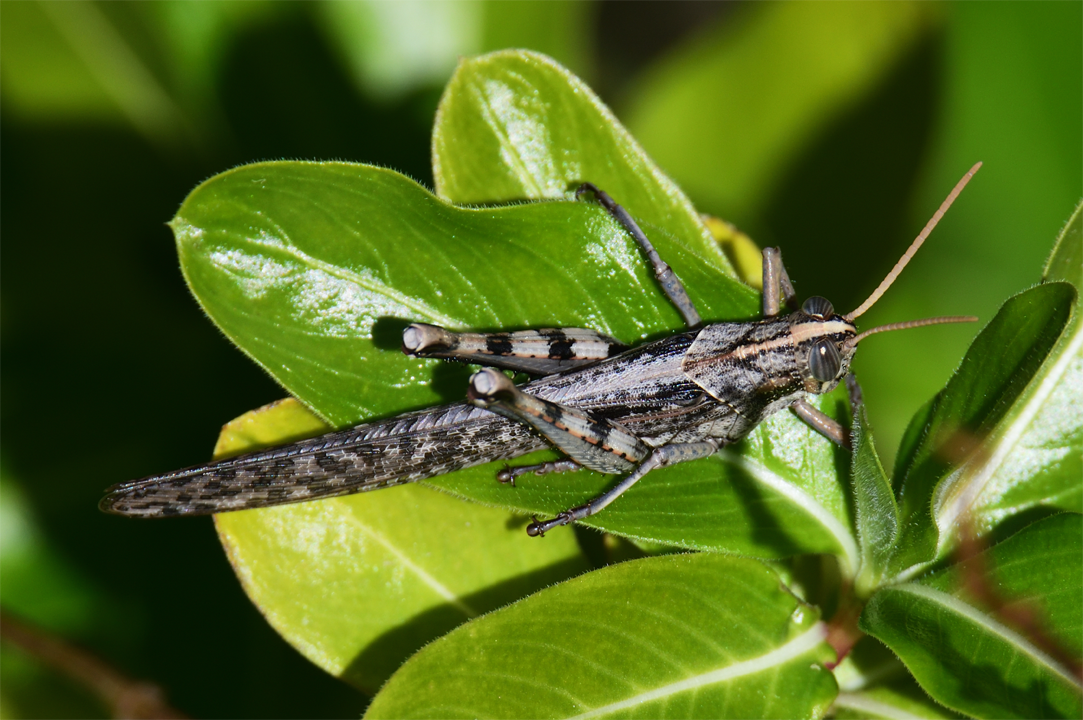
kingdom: Animalia
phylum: Arthropoda
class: Insecta
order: Orthoptera
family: Acrididae
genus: Schistocerca
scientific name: Schistocerca nitens
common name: Vagrant grasshopper
